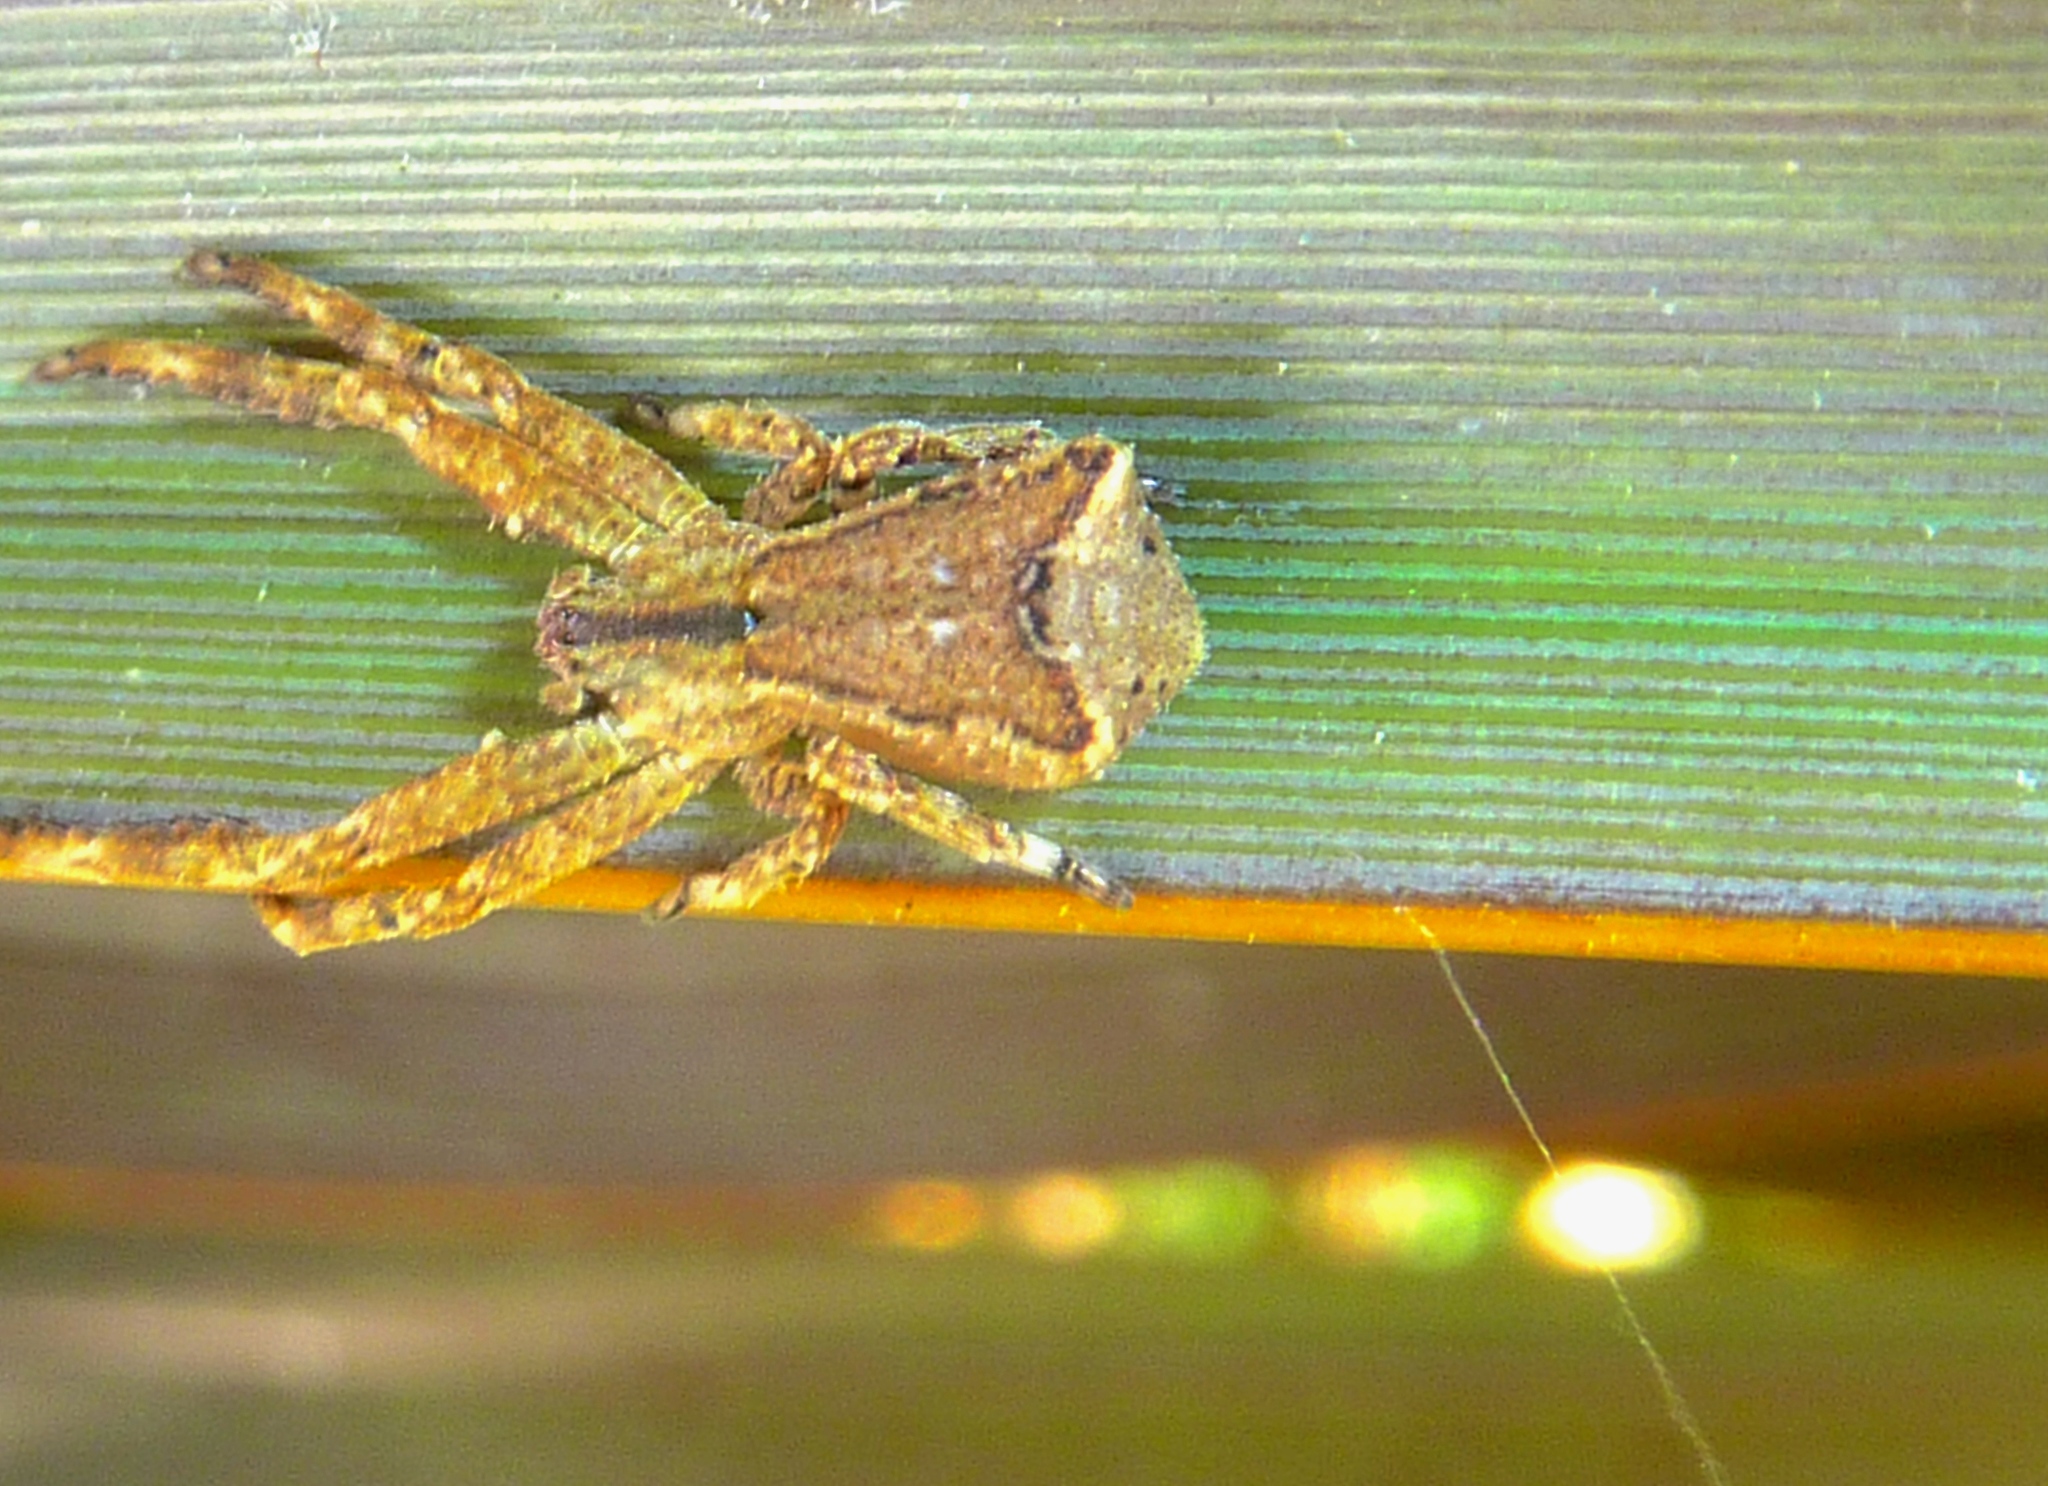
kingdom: Animalia
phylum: Arthropoda
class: Arachnida
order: Araneae
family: Thomisidae
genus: Sidymella
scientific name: Sidymella
